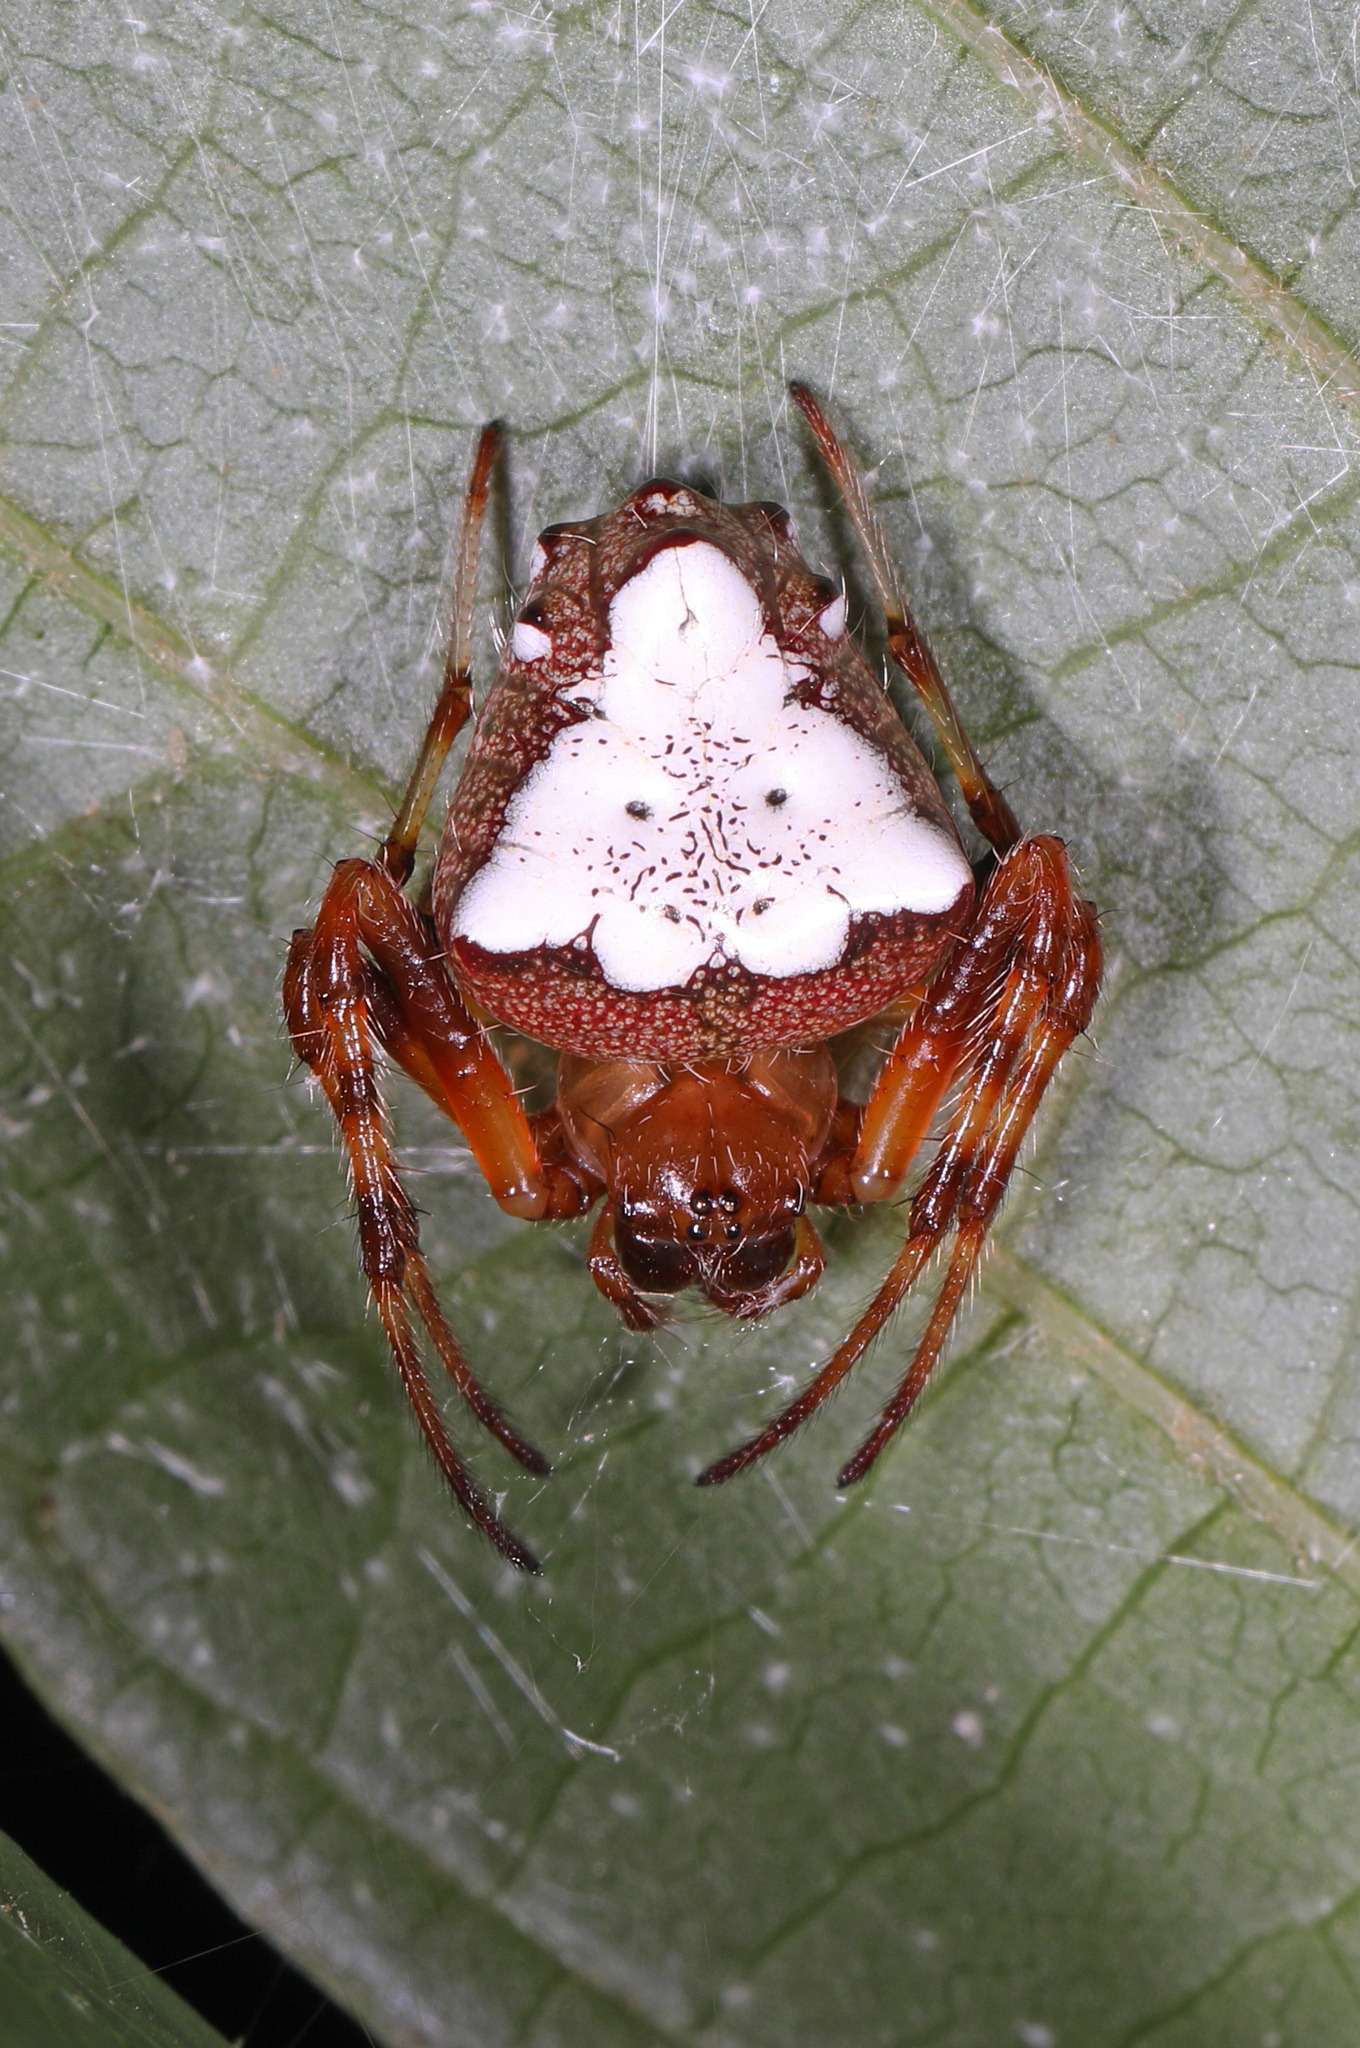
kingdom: Animalia
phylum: Arthropoda
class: Arachnida
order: Araneae
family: Araneidae
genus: Verrucosa
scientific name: Verrucosa arenata
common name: Orb weavers
